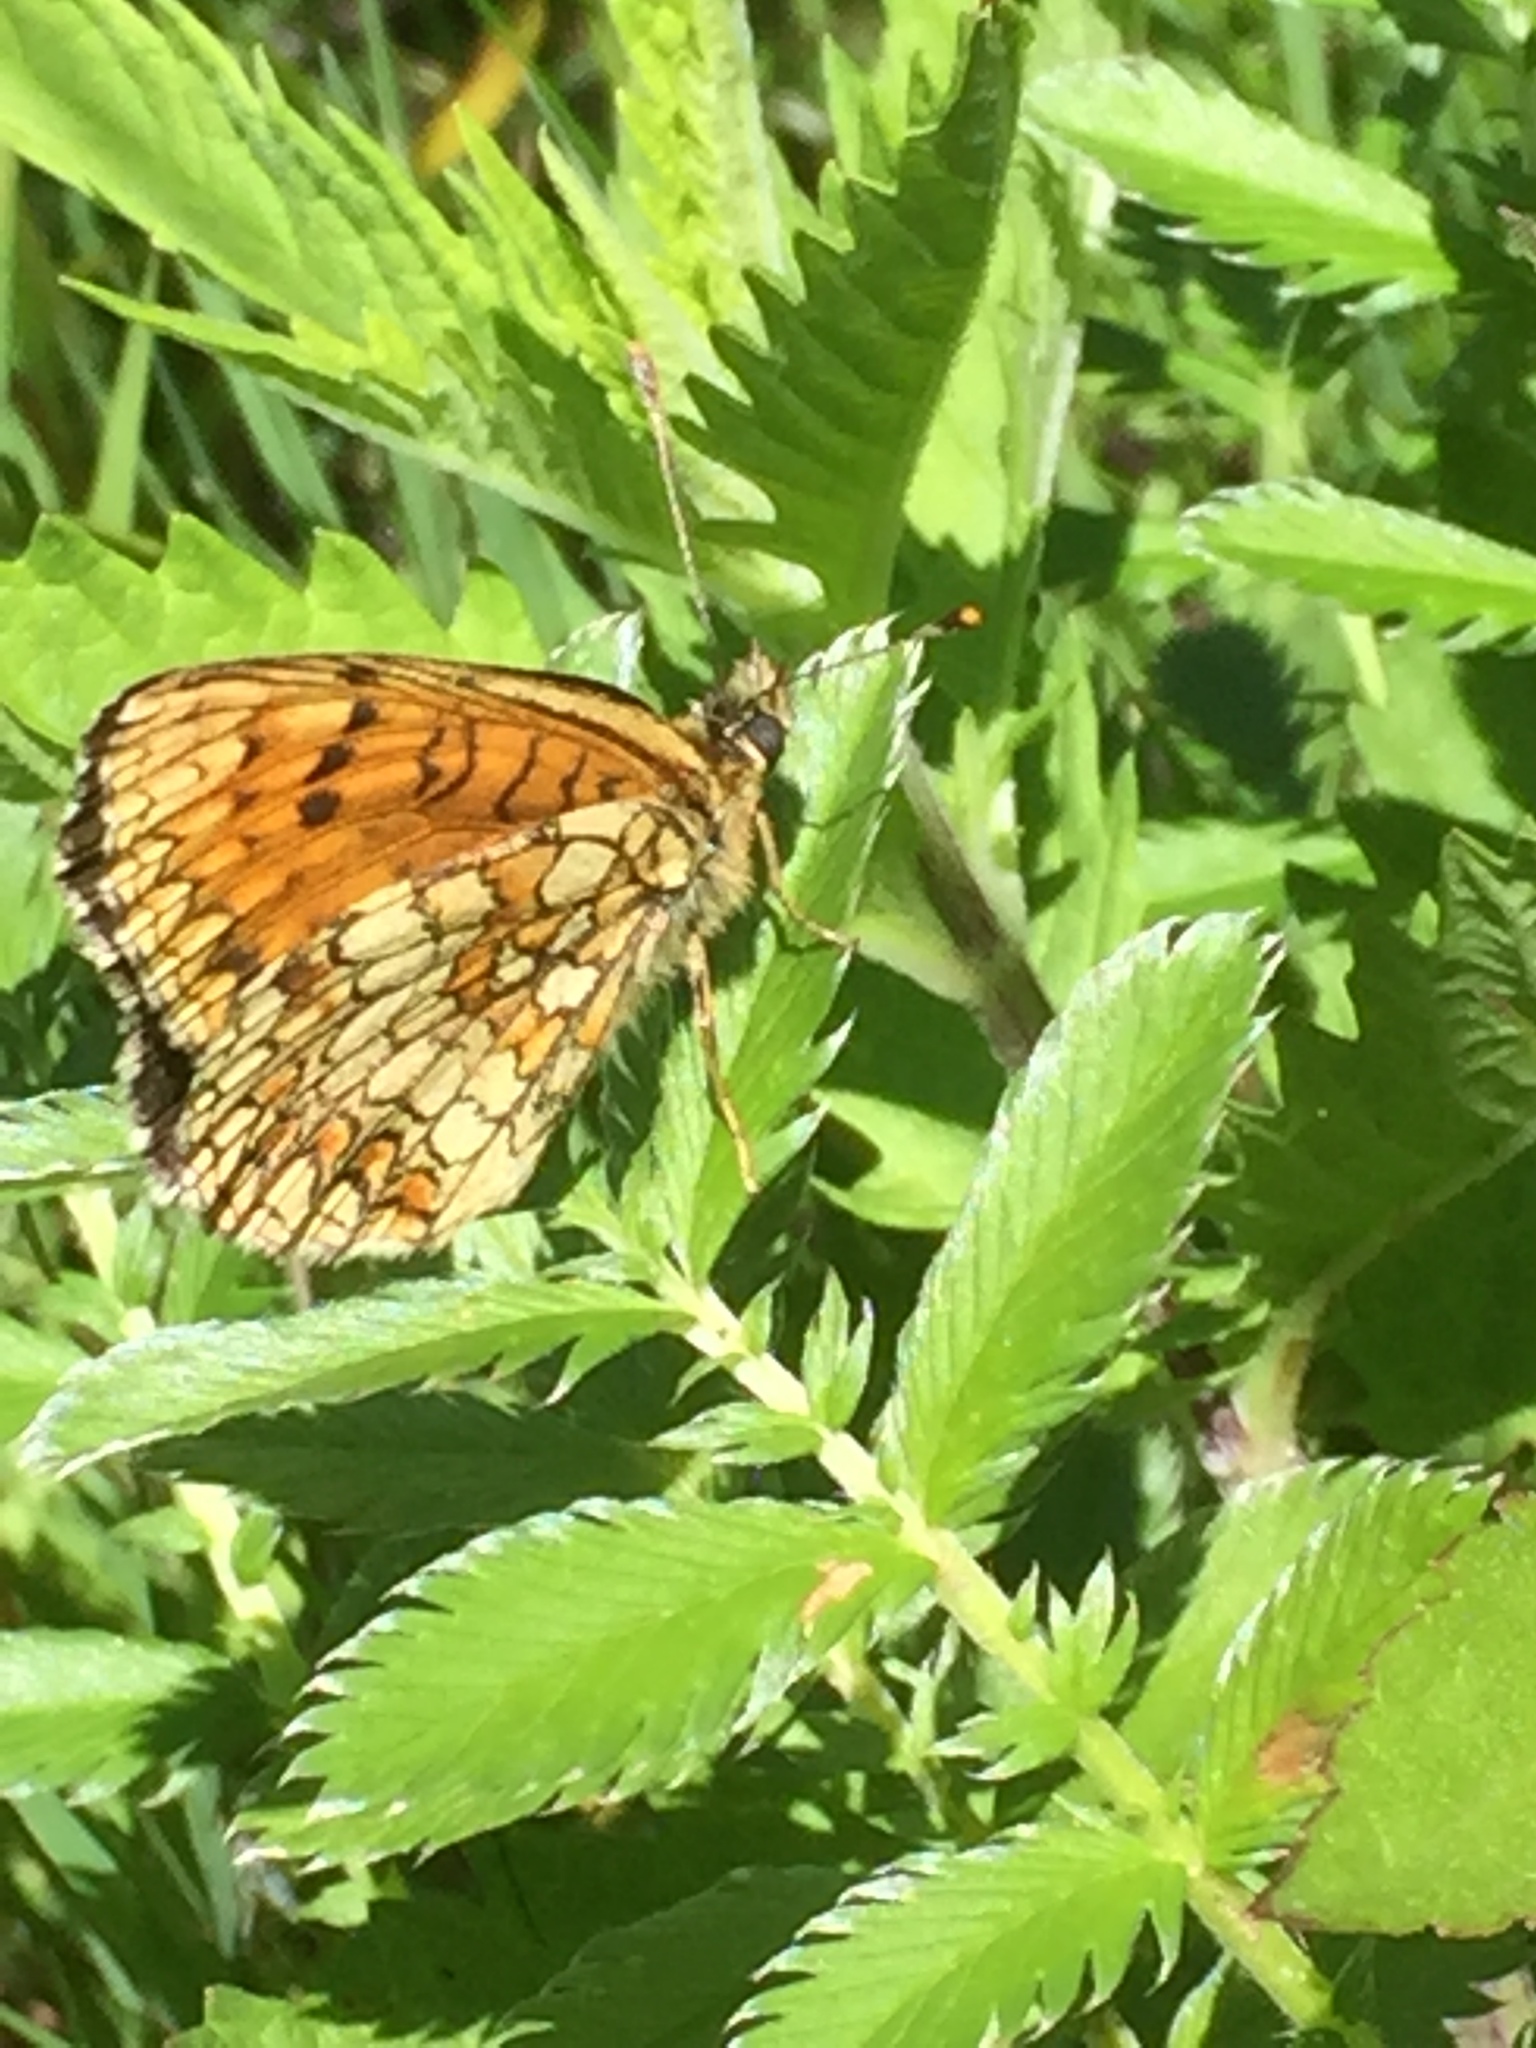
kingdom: Animalia
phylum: Arthropoda
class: Insecta
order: Lepidoptera
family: Nymphalidae
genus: Melitaea
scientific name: Melitaea athalia
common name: Heath fritillary
